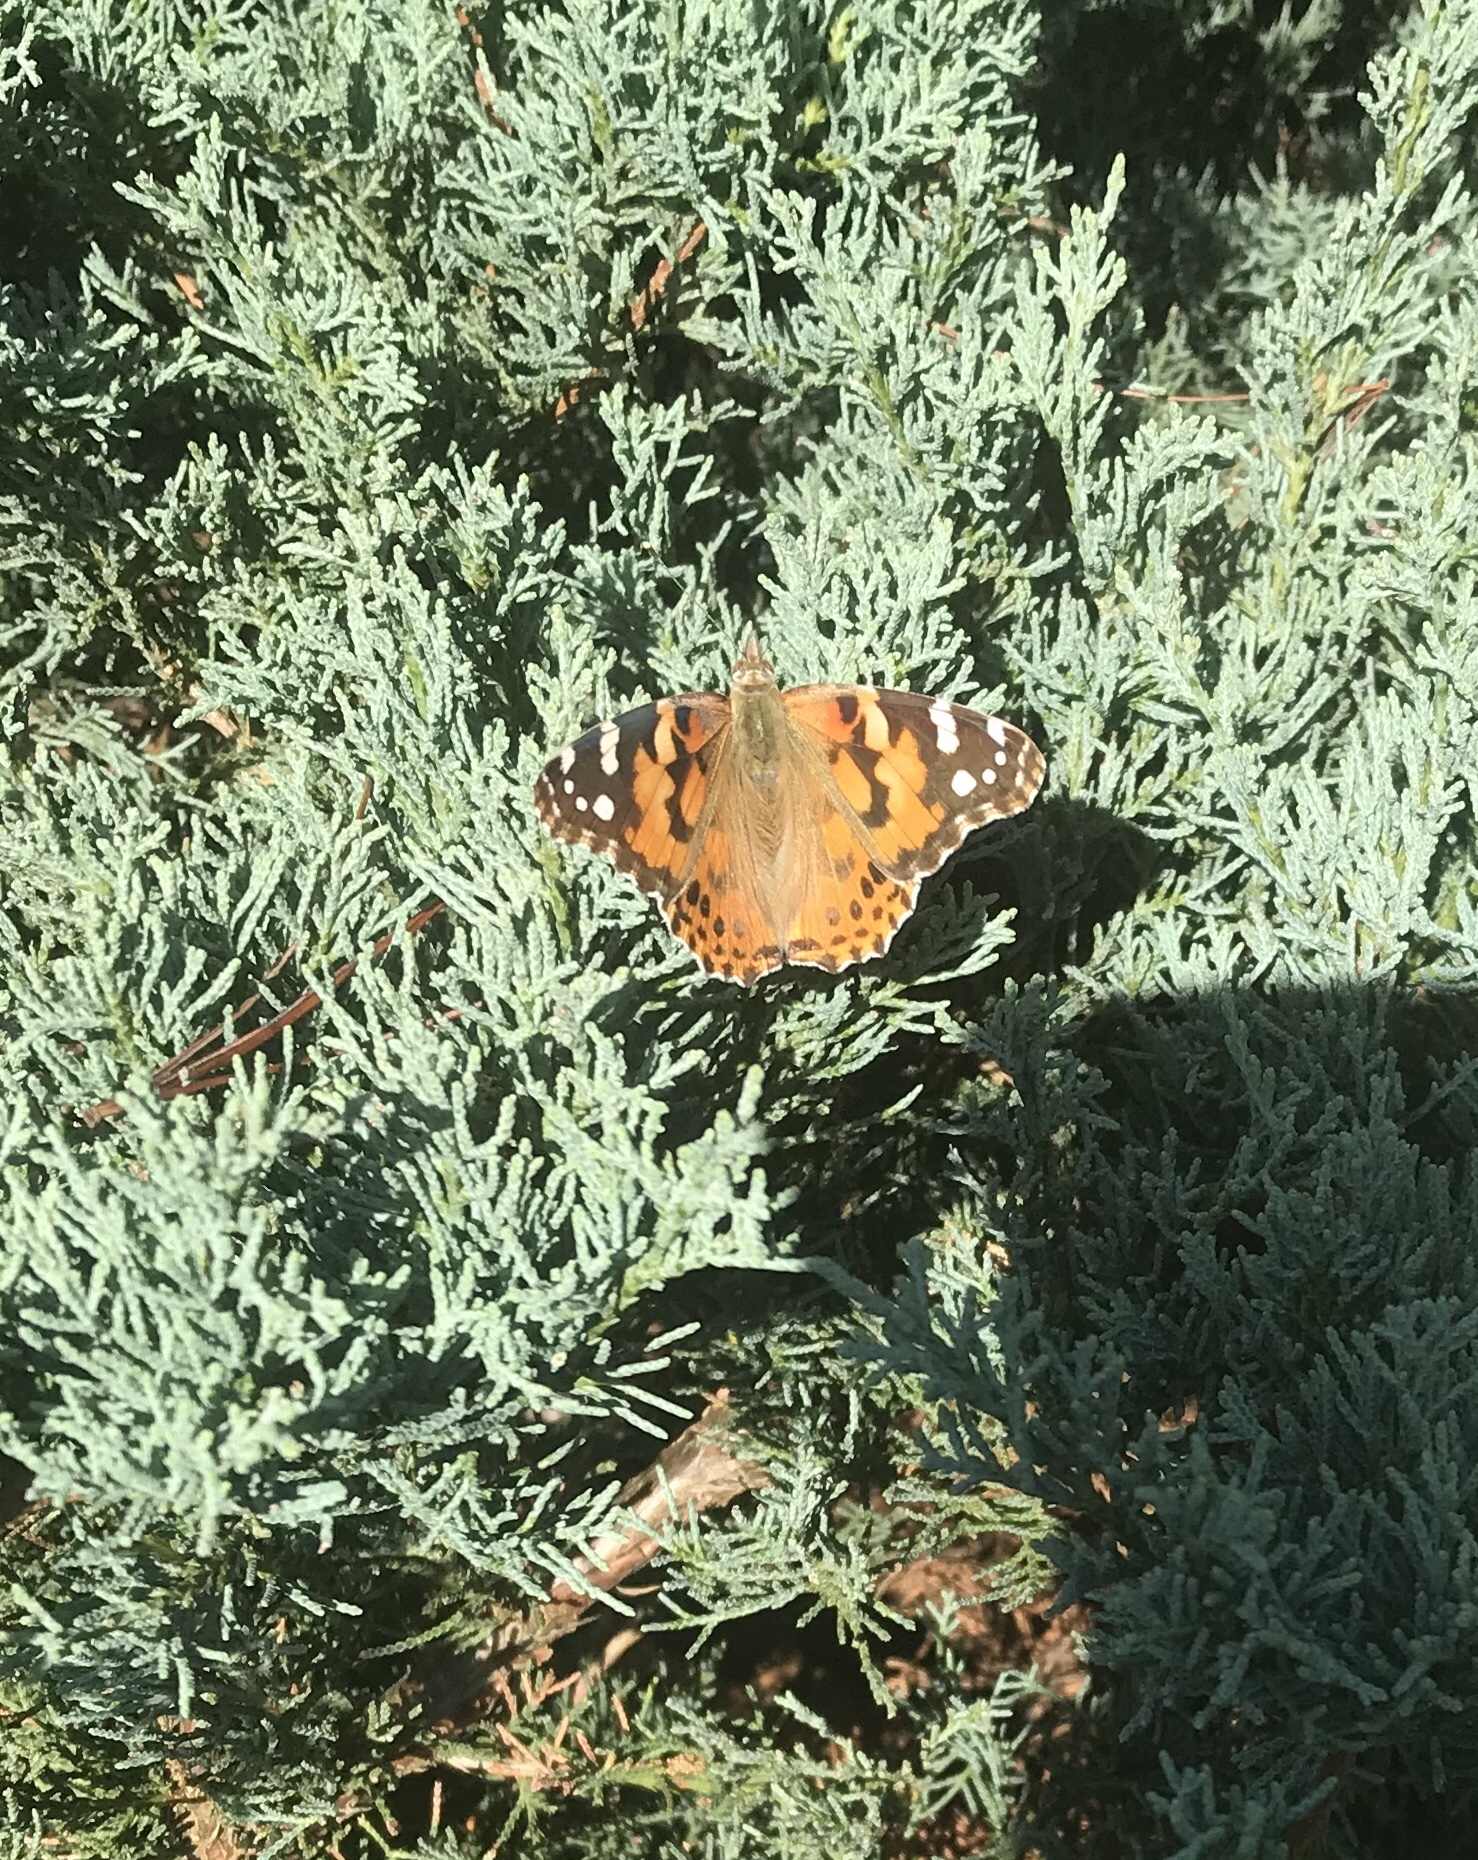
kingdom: Animalia
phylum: Arthropoda
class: Insecta
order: Lepidoptera
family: Nymphalidae
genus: Vanessa
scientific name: Vanessa cardui
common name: Painted lady
